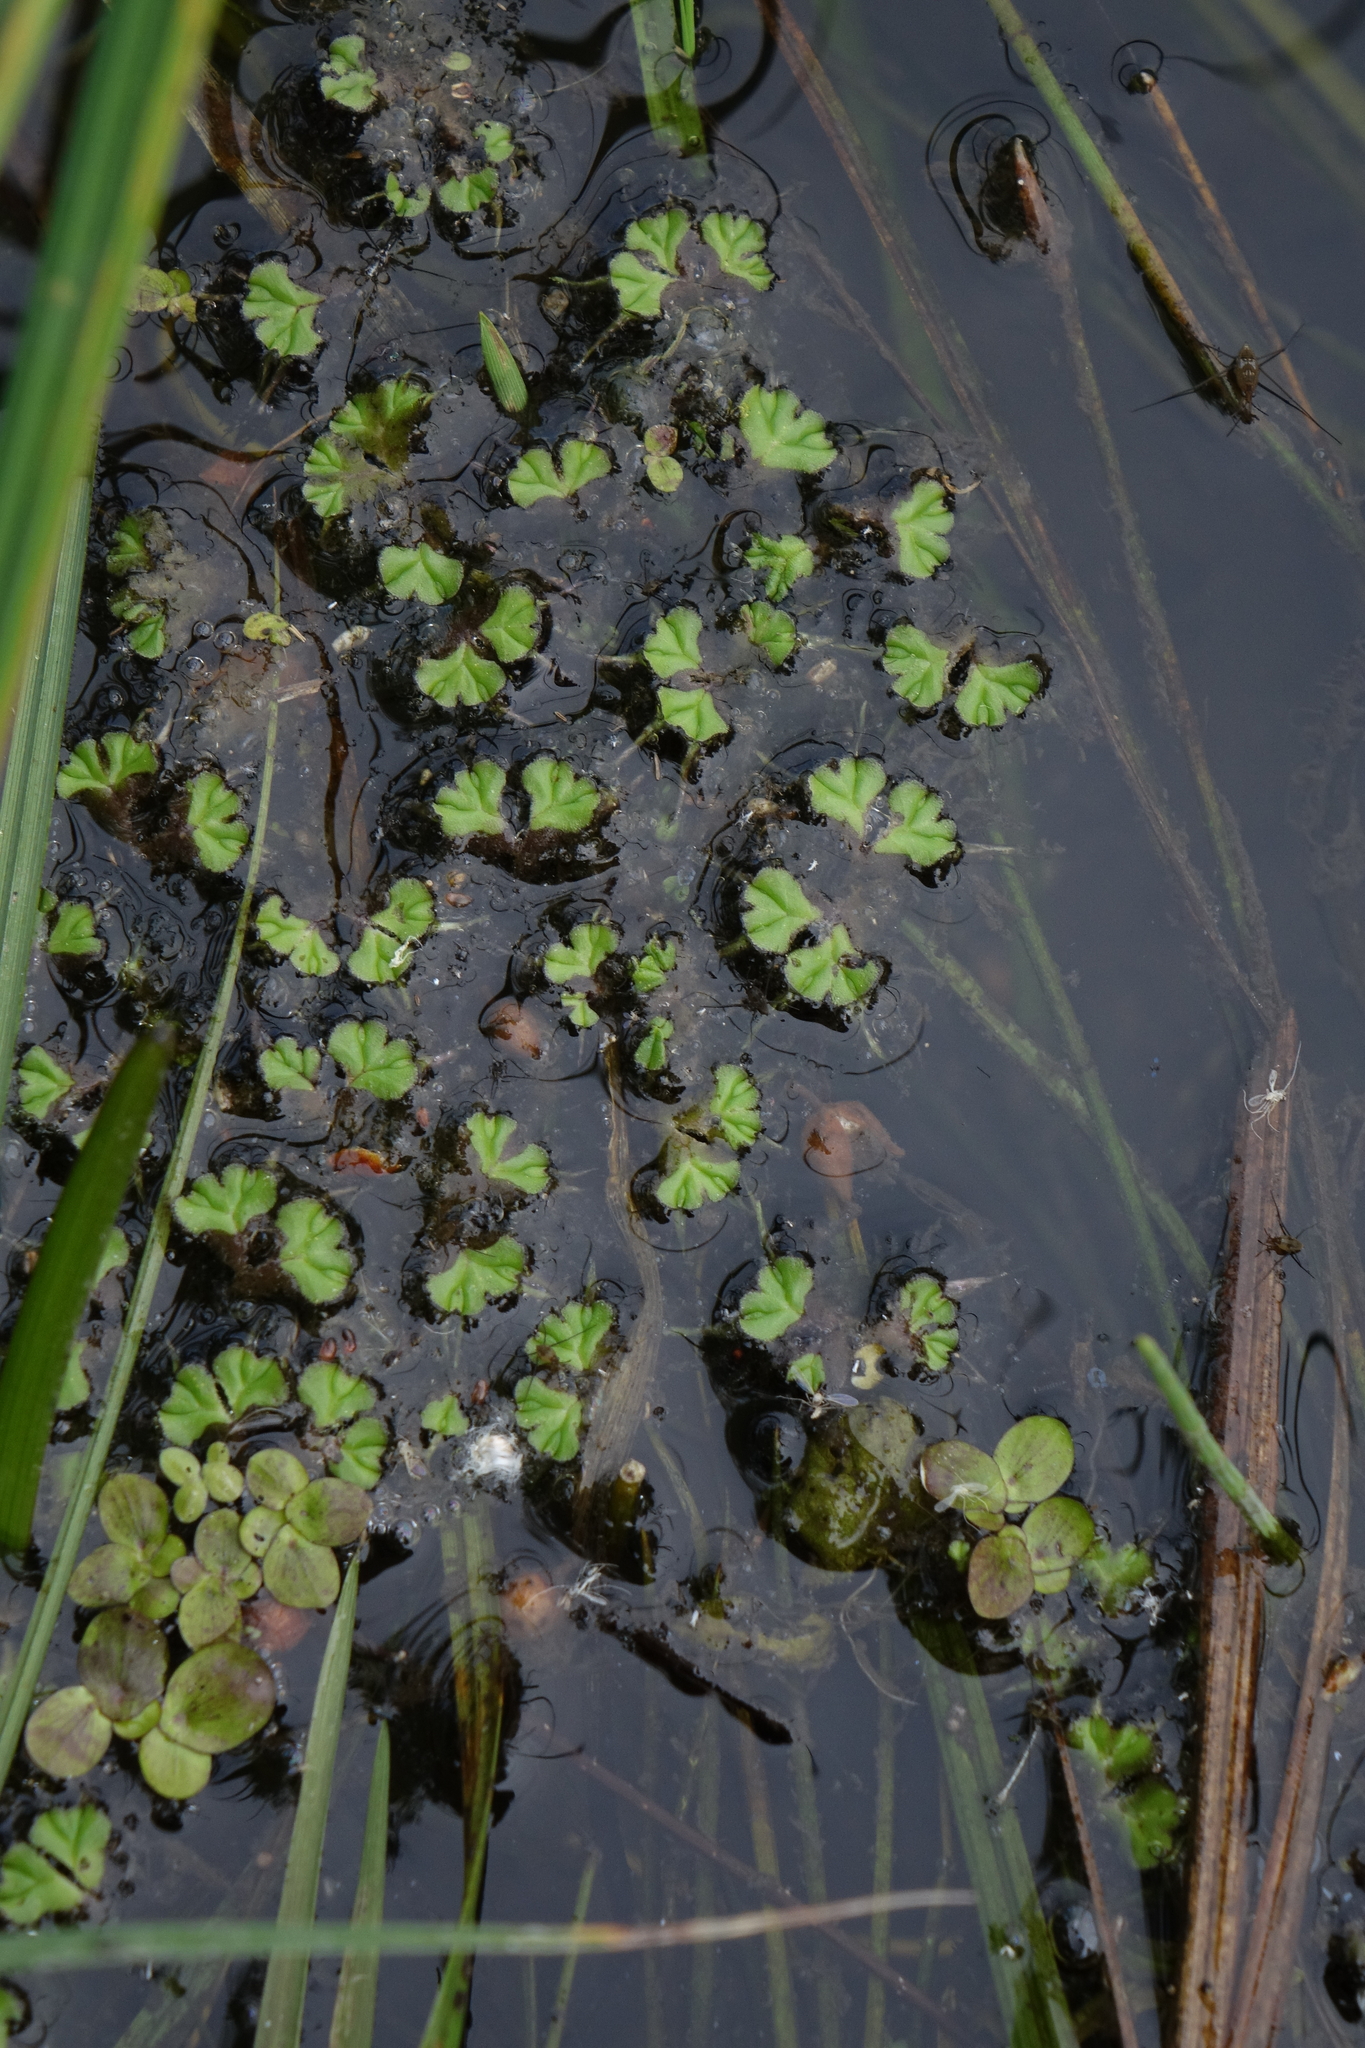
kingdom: Plantae
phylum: Marchantiophyta
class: Marchantiopsida
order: Marchantiales
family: Ricciaceae
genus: Ricciocarpos
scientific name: Ricciocarpos natans
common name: Purple-fringed liverwort
